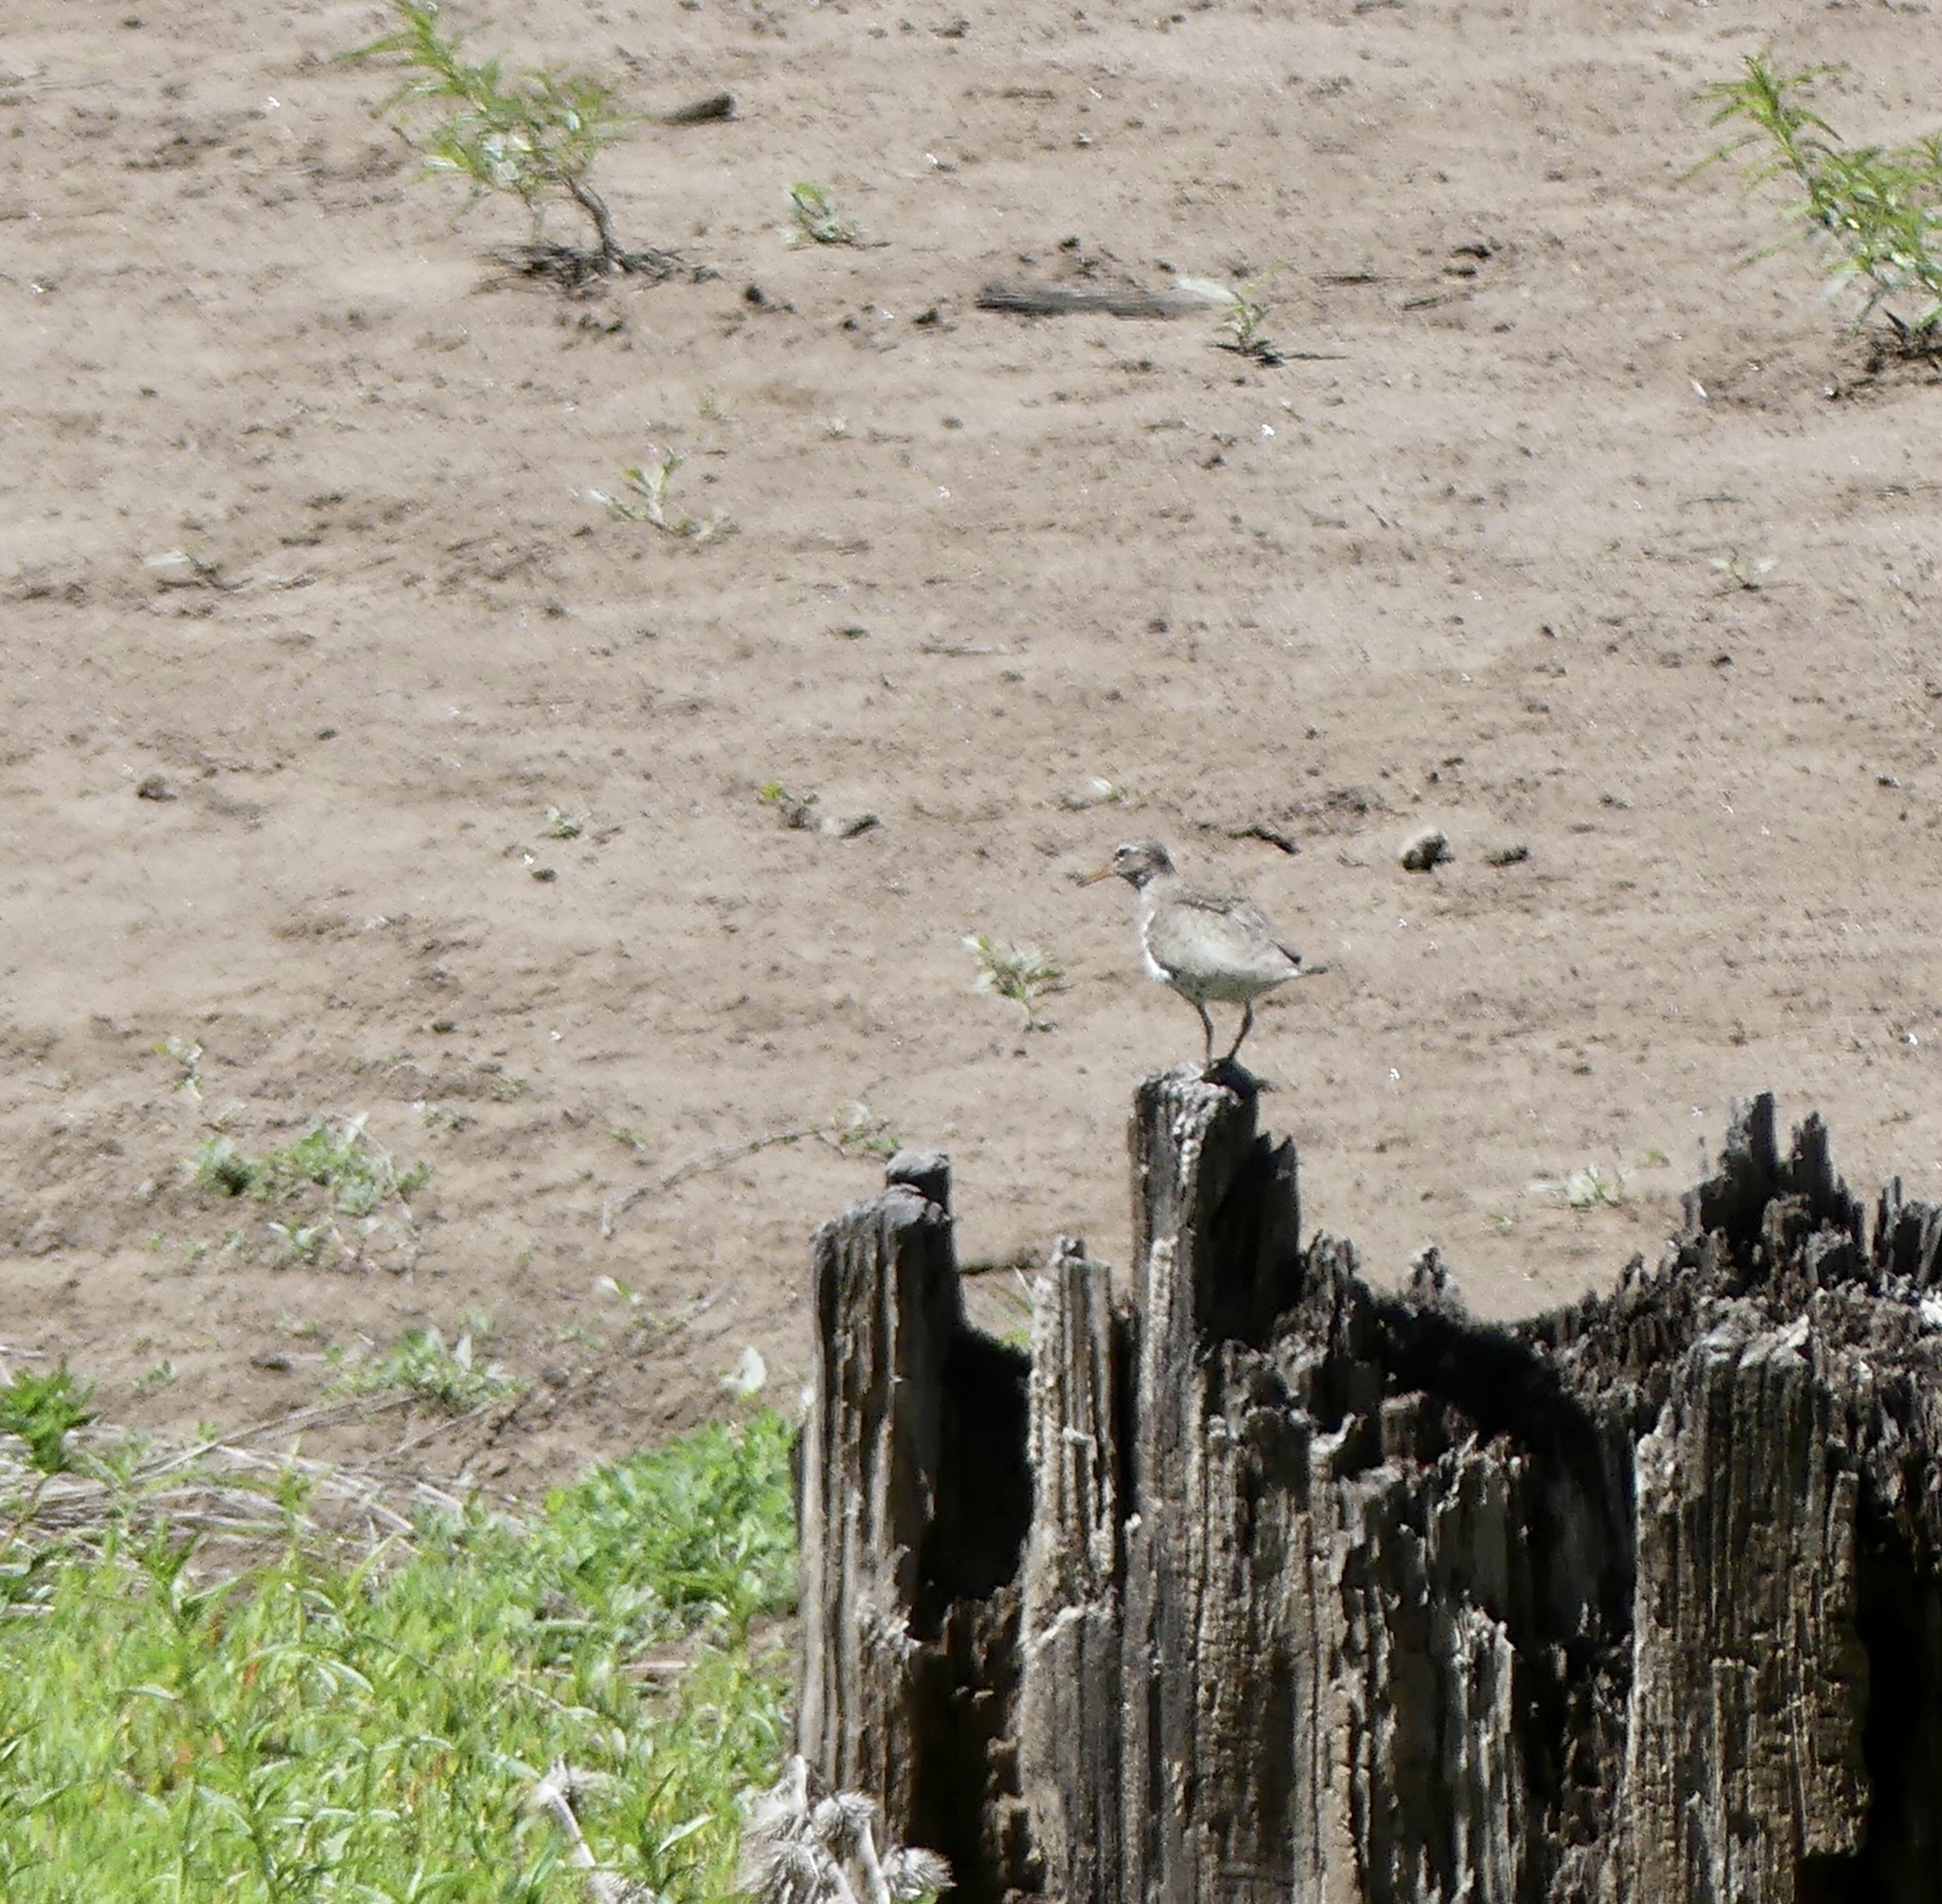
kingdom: Animalia
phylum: Chordata
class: Aves
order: Charadriiformes
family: Scolopacidae
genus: Actitis
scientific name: Actitis macularius
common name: Spotted sandpiper
